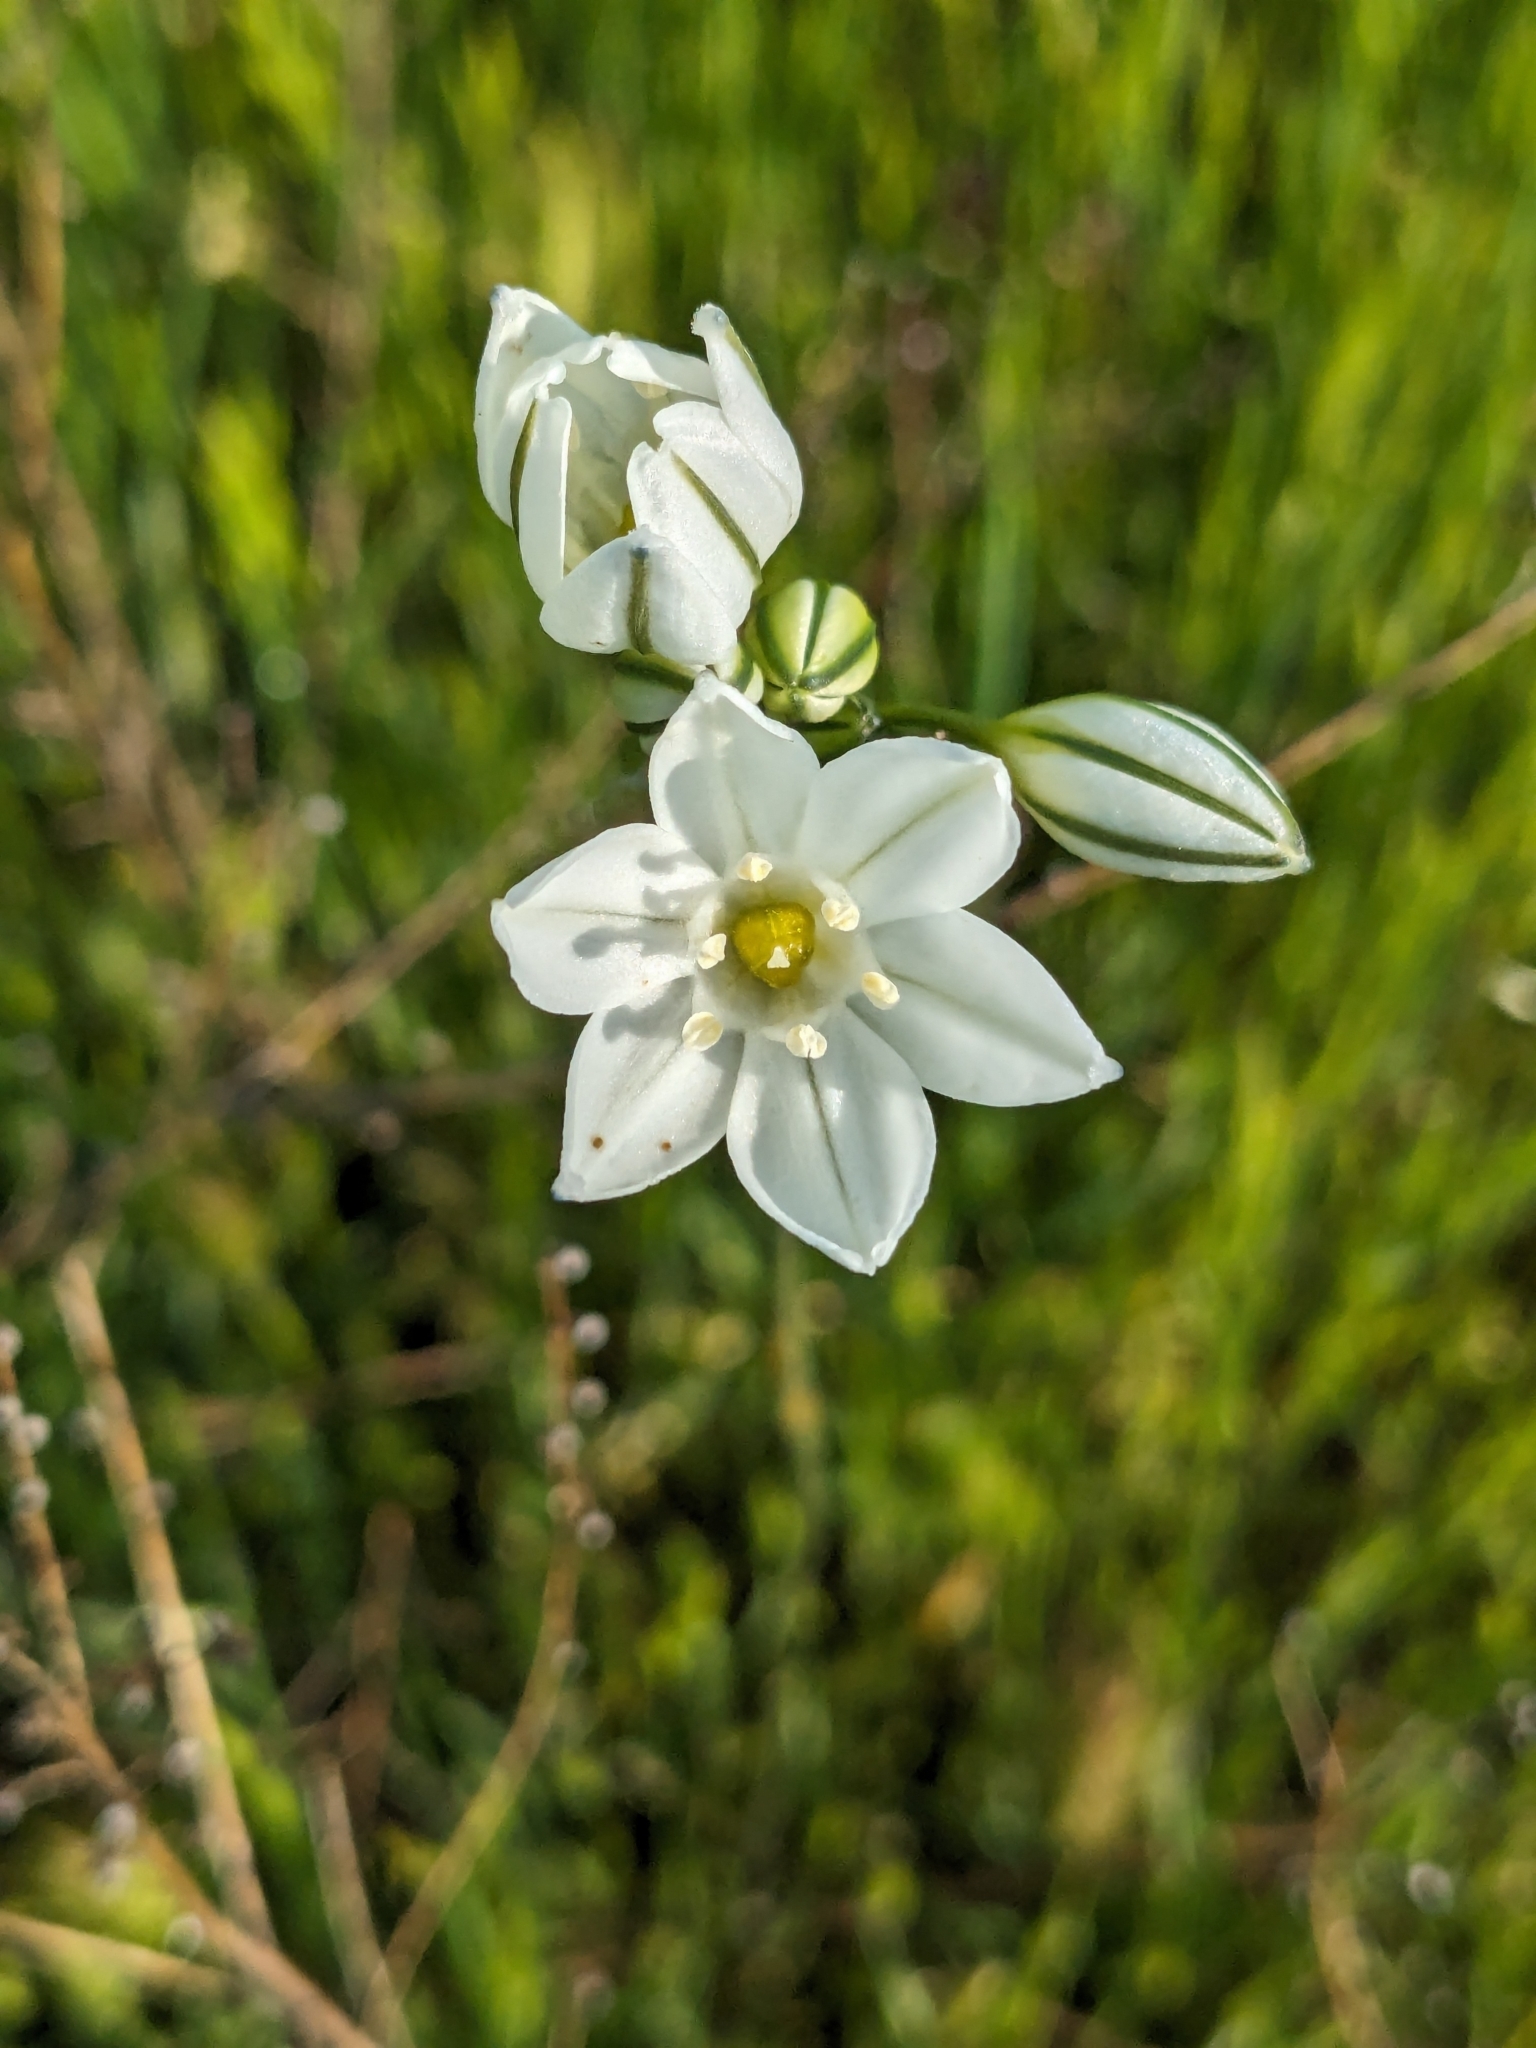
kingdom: Plantae
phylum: Tracheophyta
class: Liliopsida
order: Asparagales
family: Asparagaceae
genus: Triteleia
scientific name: Triteleia hyacinthina
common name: White brodiaea
